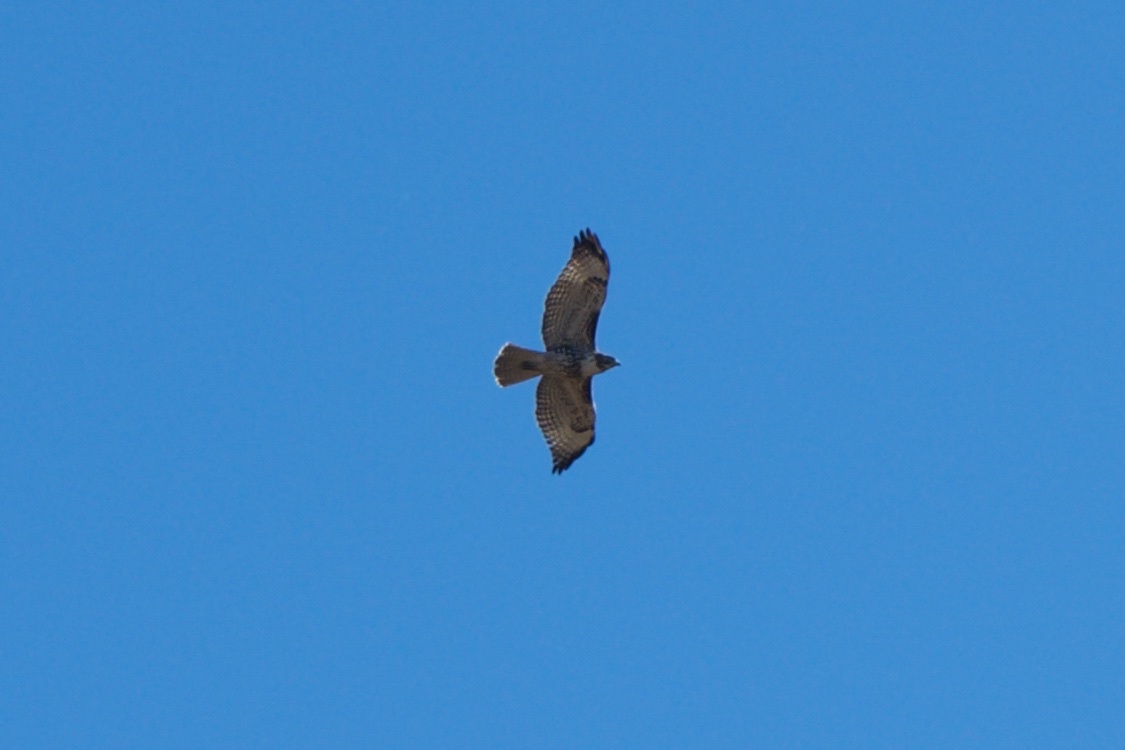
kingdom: Animalia
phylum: Chordata
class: Aves
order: Accipitriformes
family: Accipitridae
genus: Buteo
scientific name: Buteo jamaicensis
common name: Red-tailed hawk
